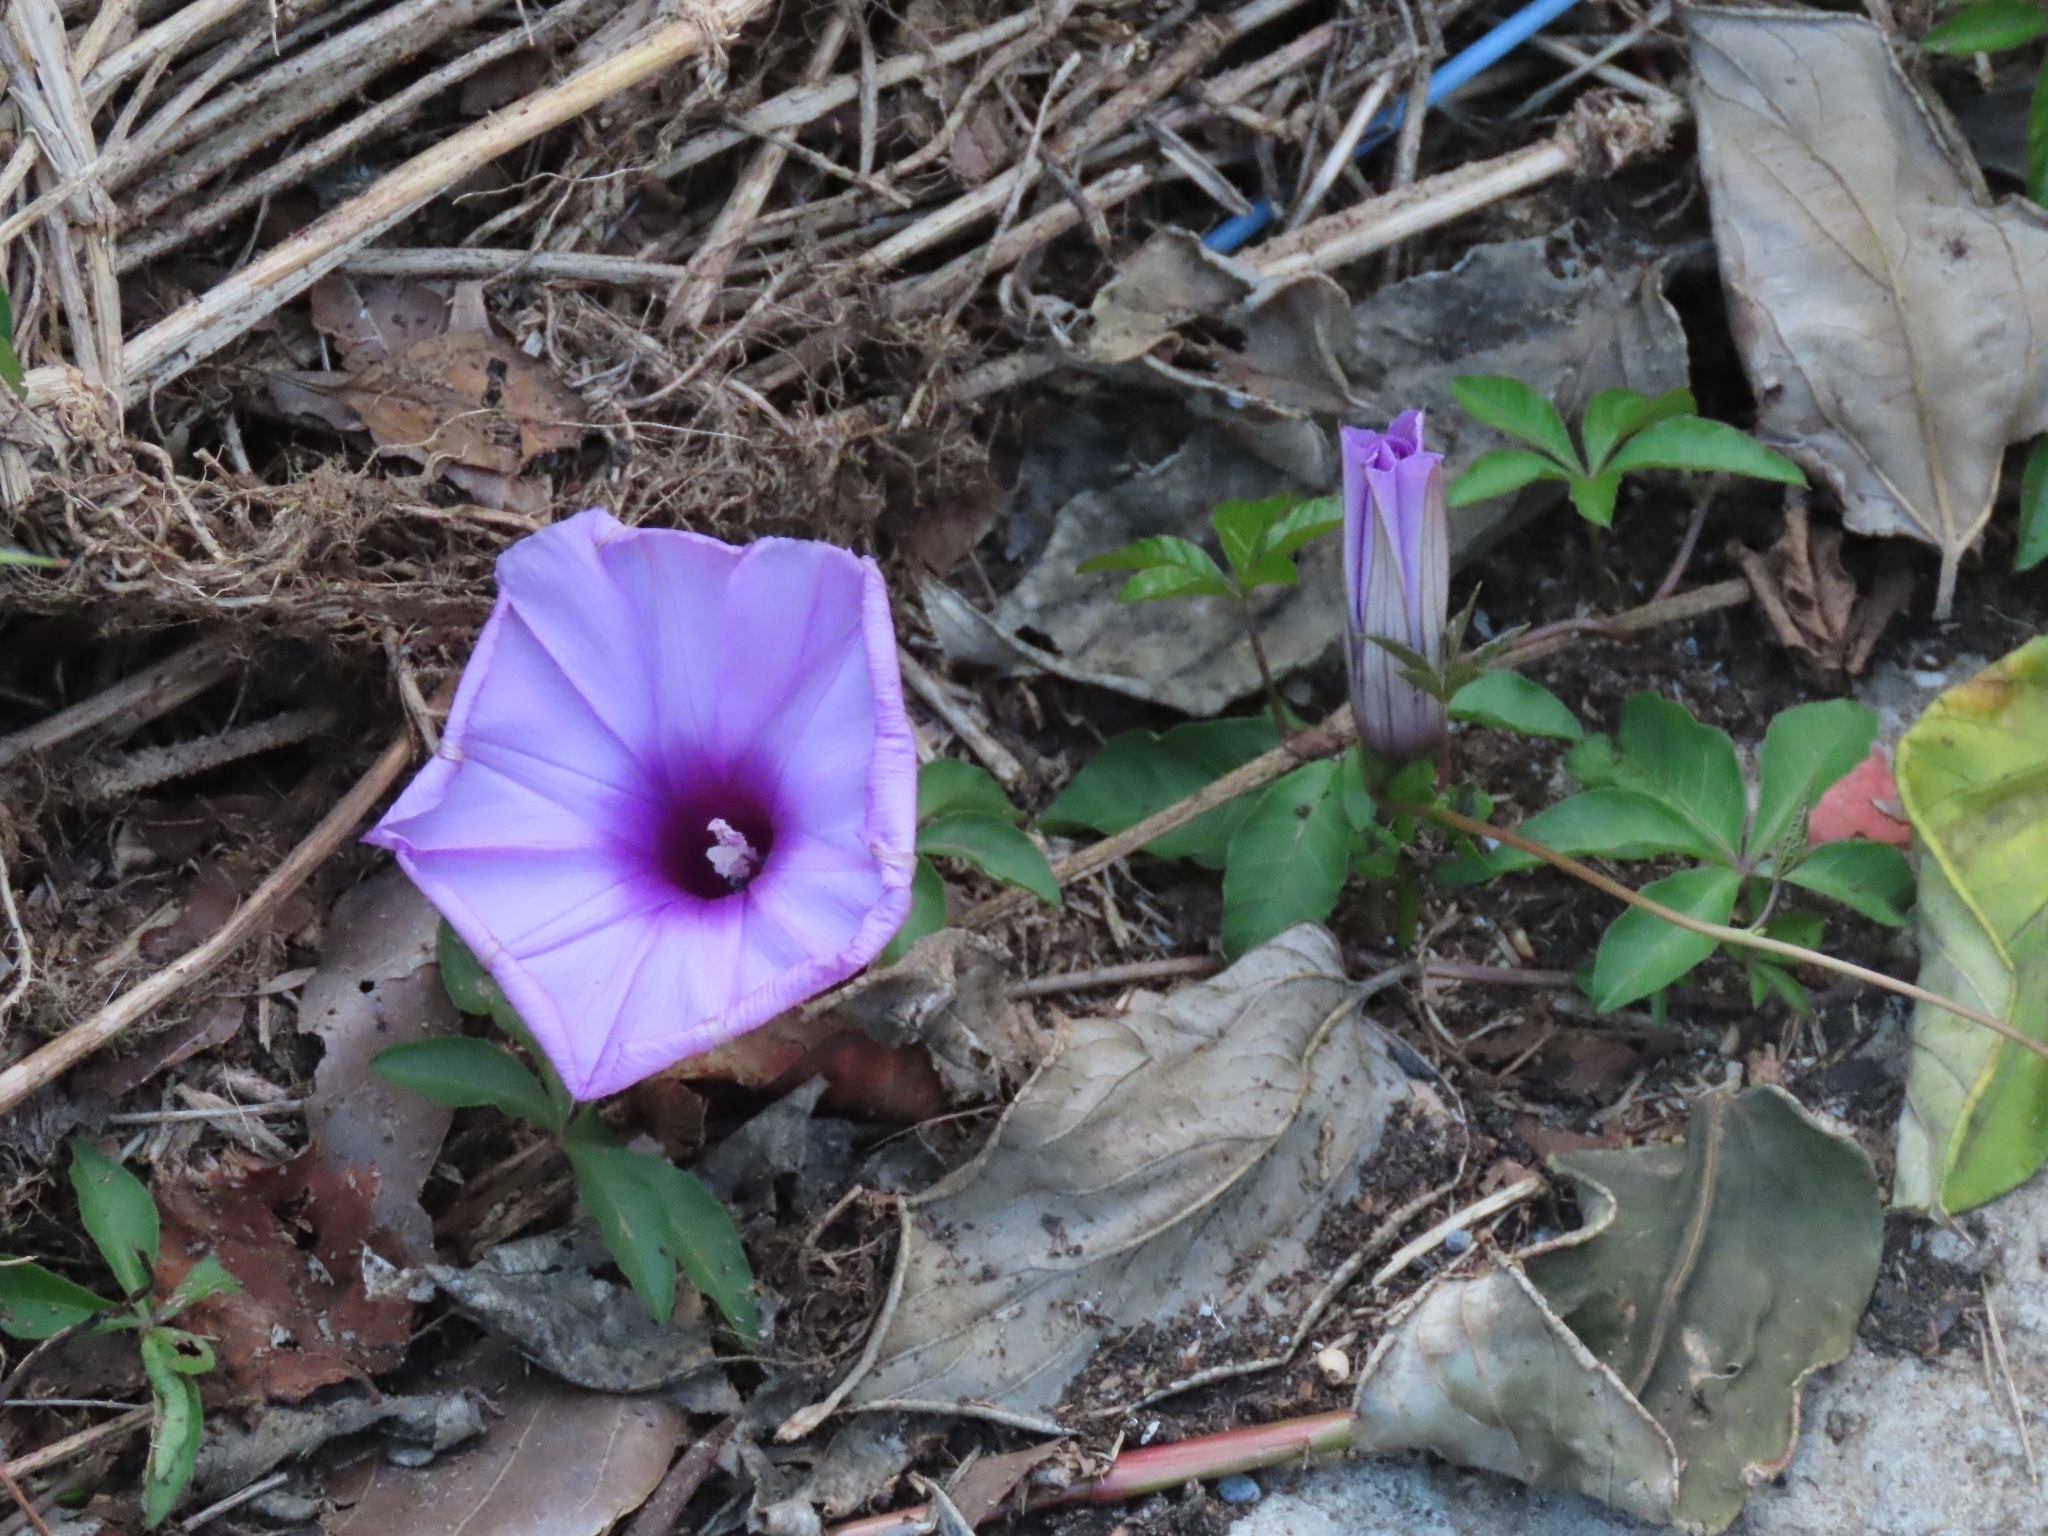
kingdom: Plantae
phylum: Tracheophyta
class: Magnoliopsida
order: Solanales
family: Convolvulaceae
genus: Ipomoea
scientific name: Ipomoea cairica
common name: Mile a minute vine
